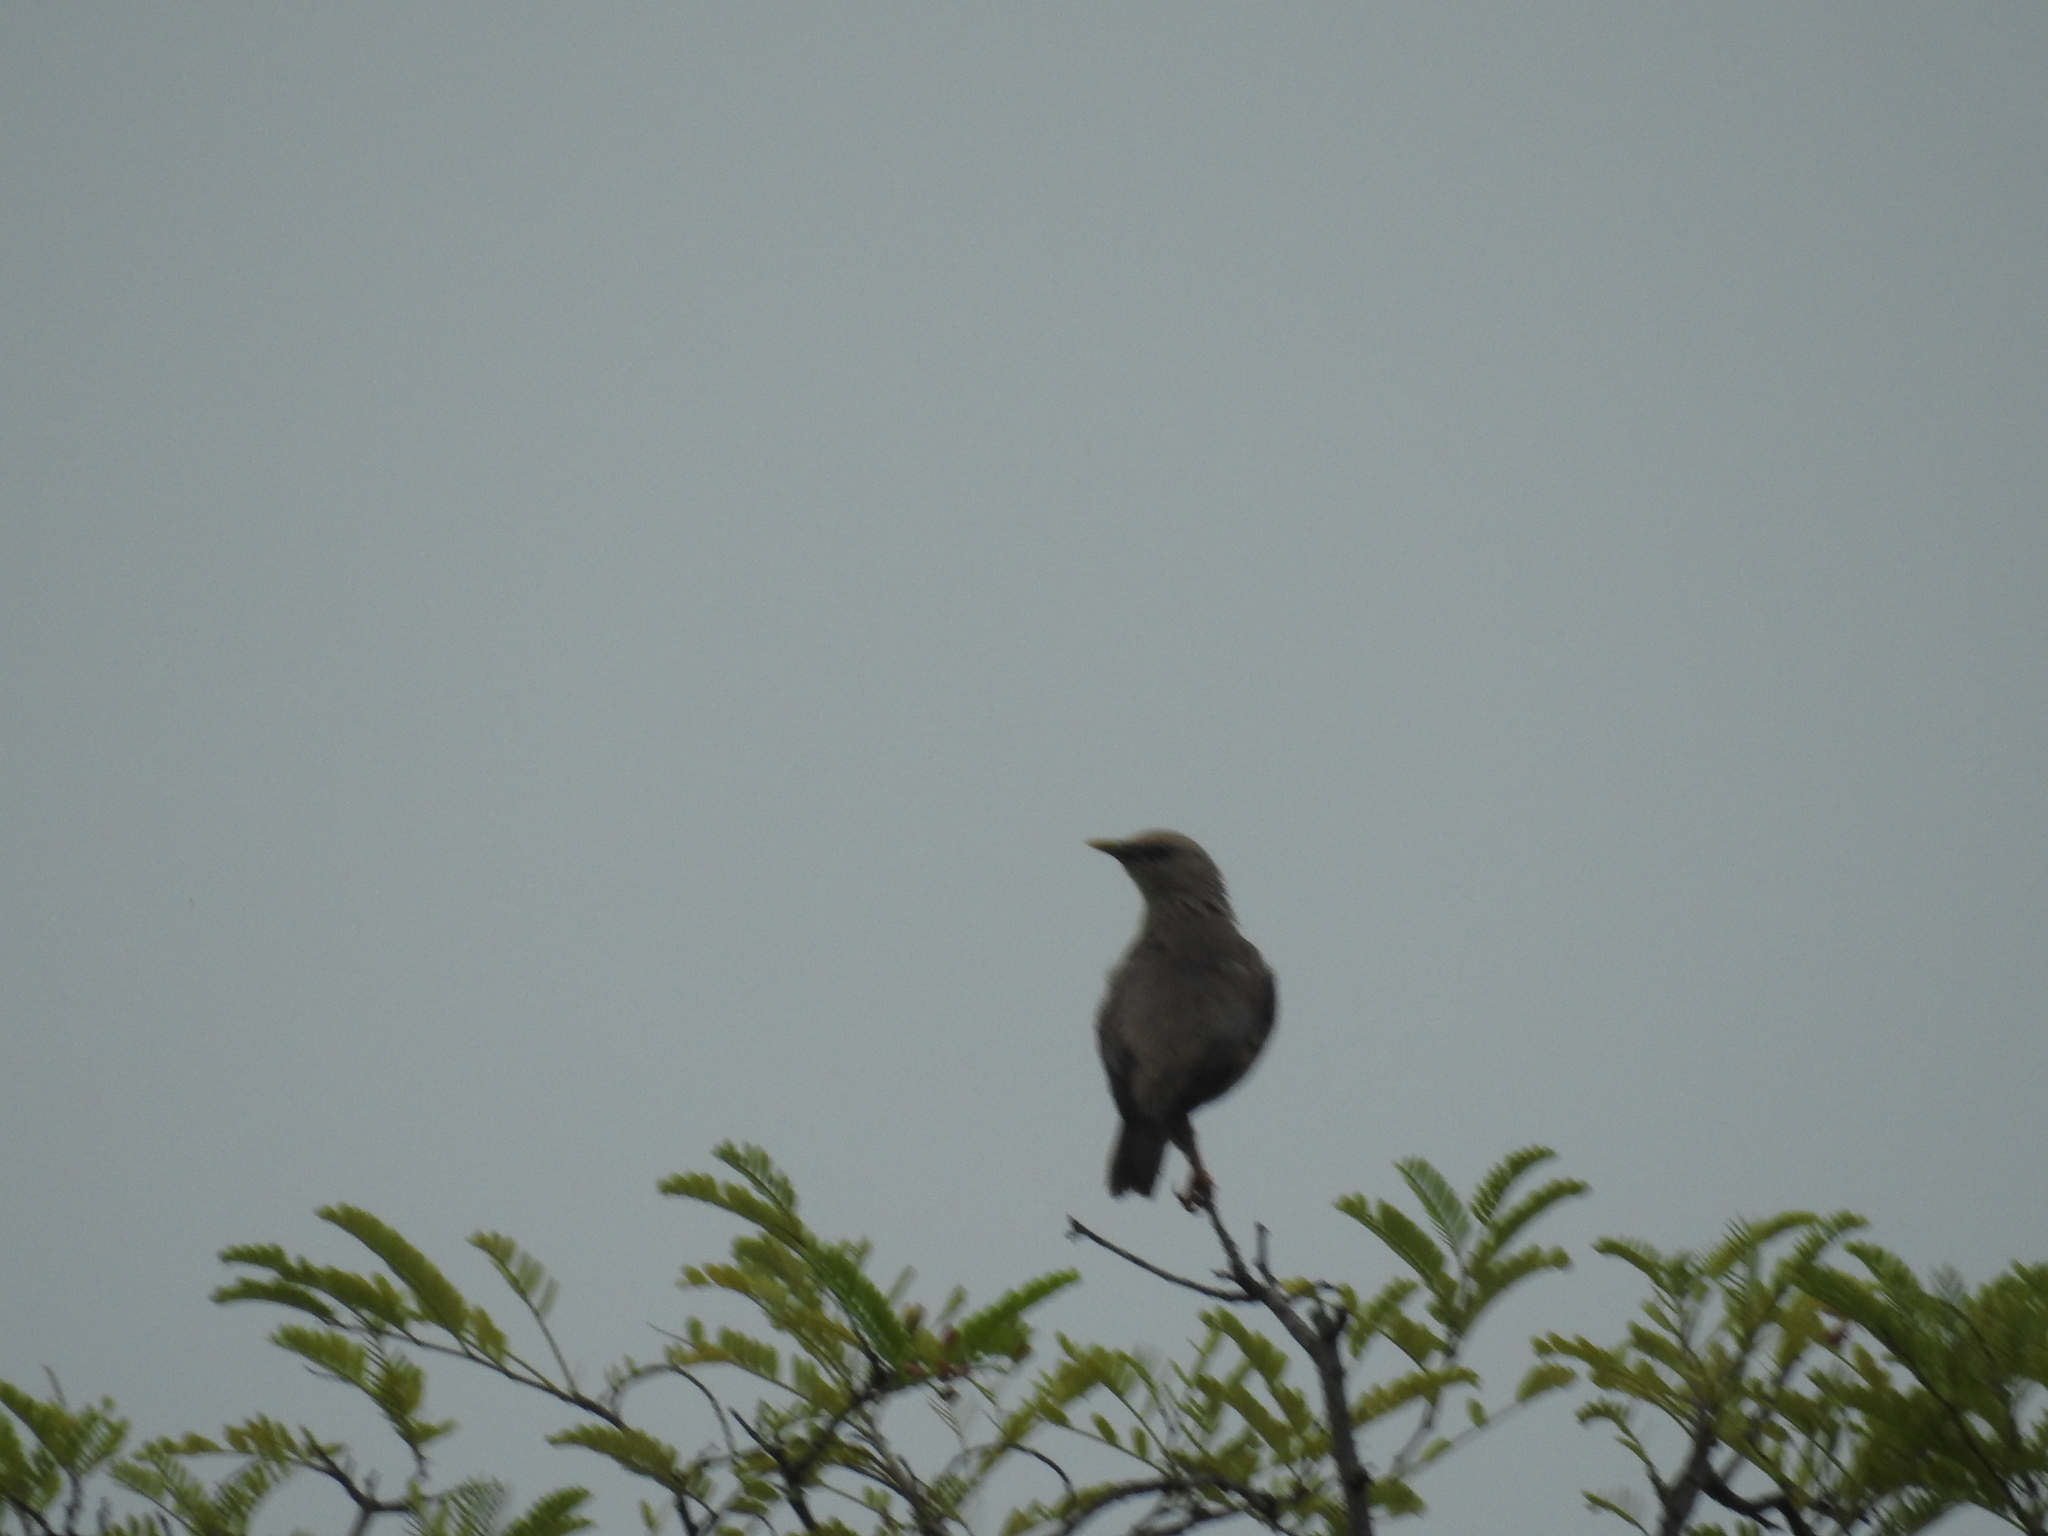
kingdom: Animalia
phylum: Chordata
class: Aves
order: Passeriformes
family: Sturnidae
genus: Sturnia
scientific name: Sturnia malabarica
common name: Chestnut-tailed starling
